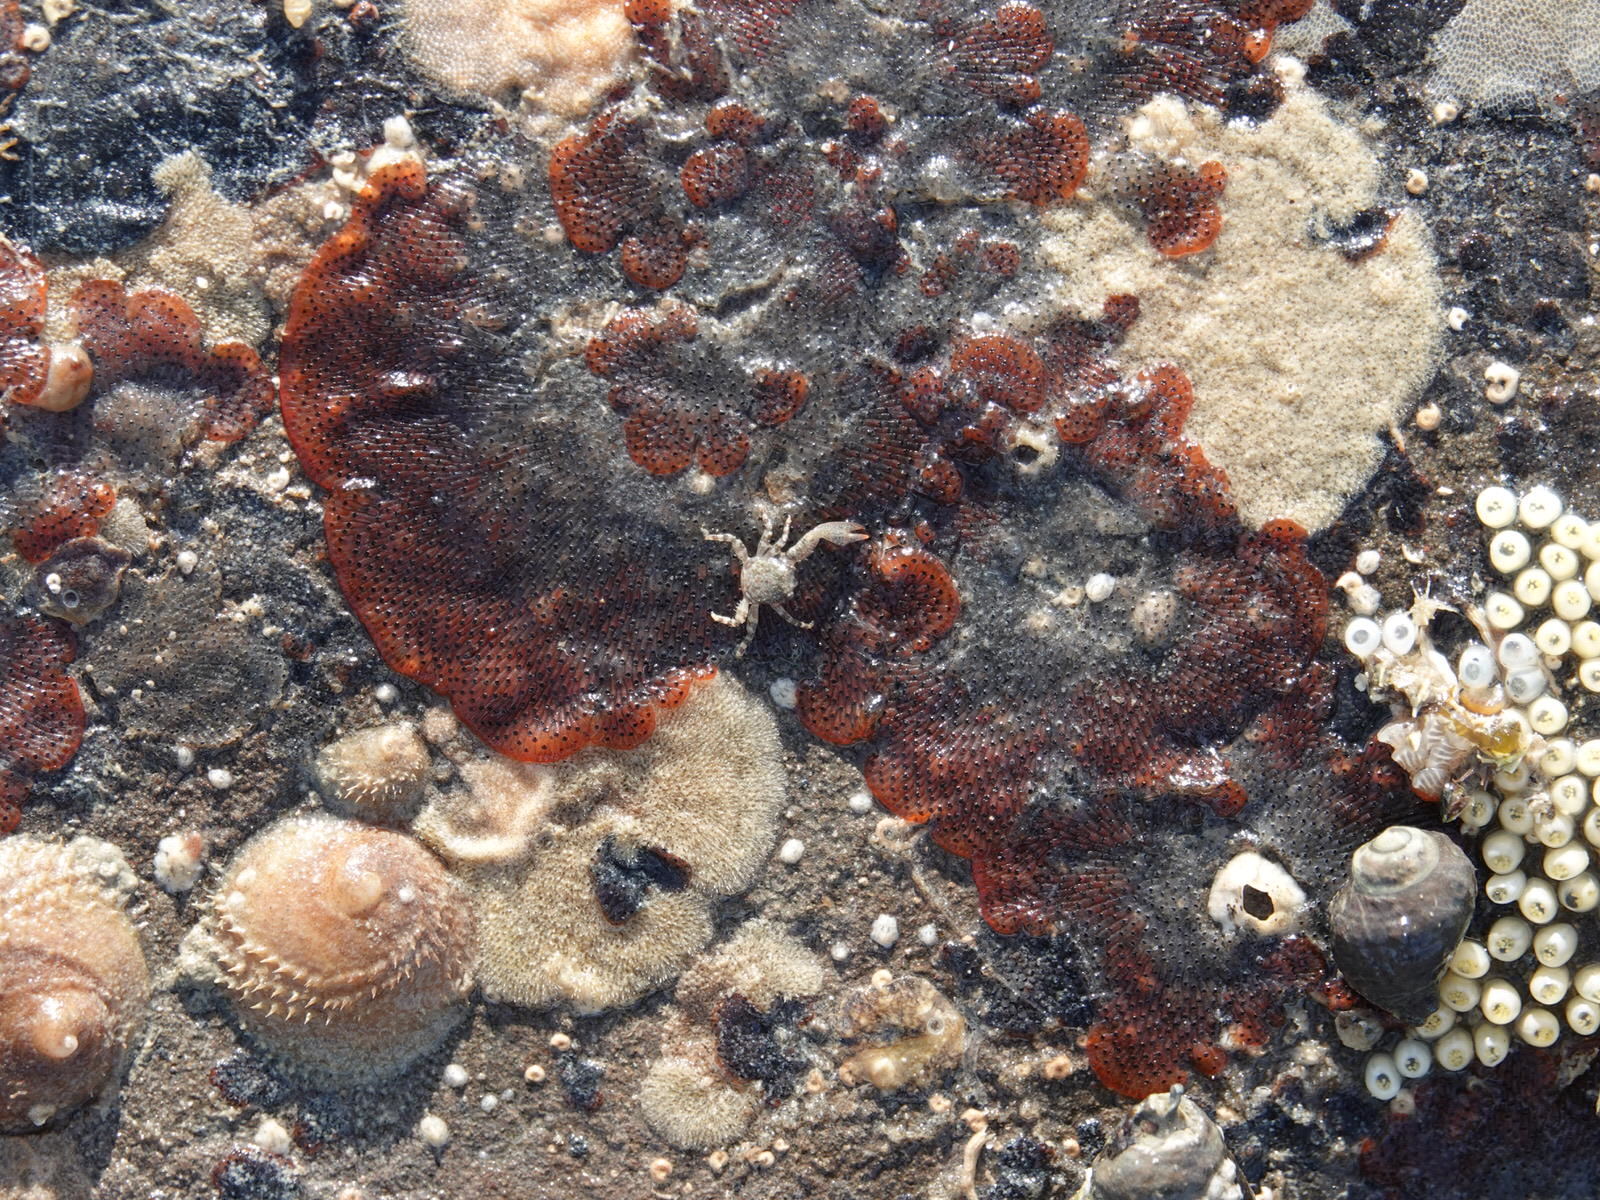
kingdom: Animalia
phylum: Bryozoa
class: Gymnolaemata
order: Cheilostomatida
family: Watersiporidae
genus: Watersipora
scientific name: Watersipora subatra
